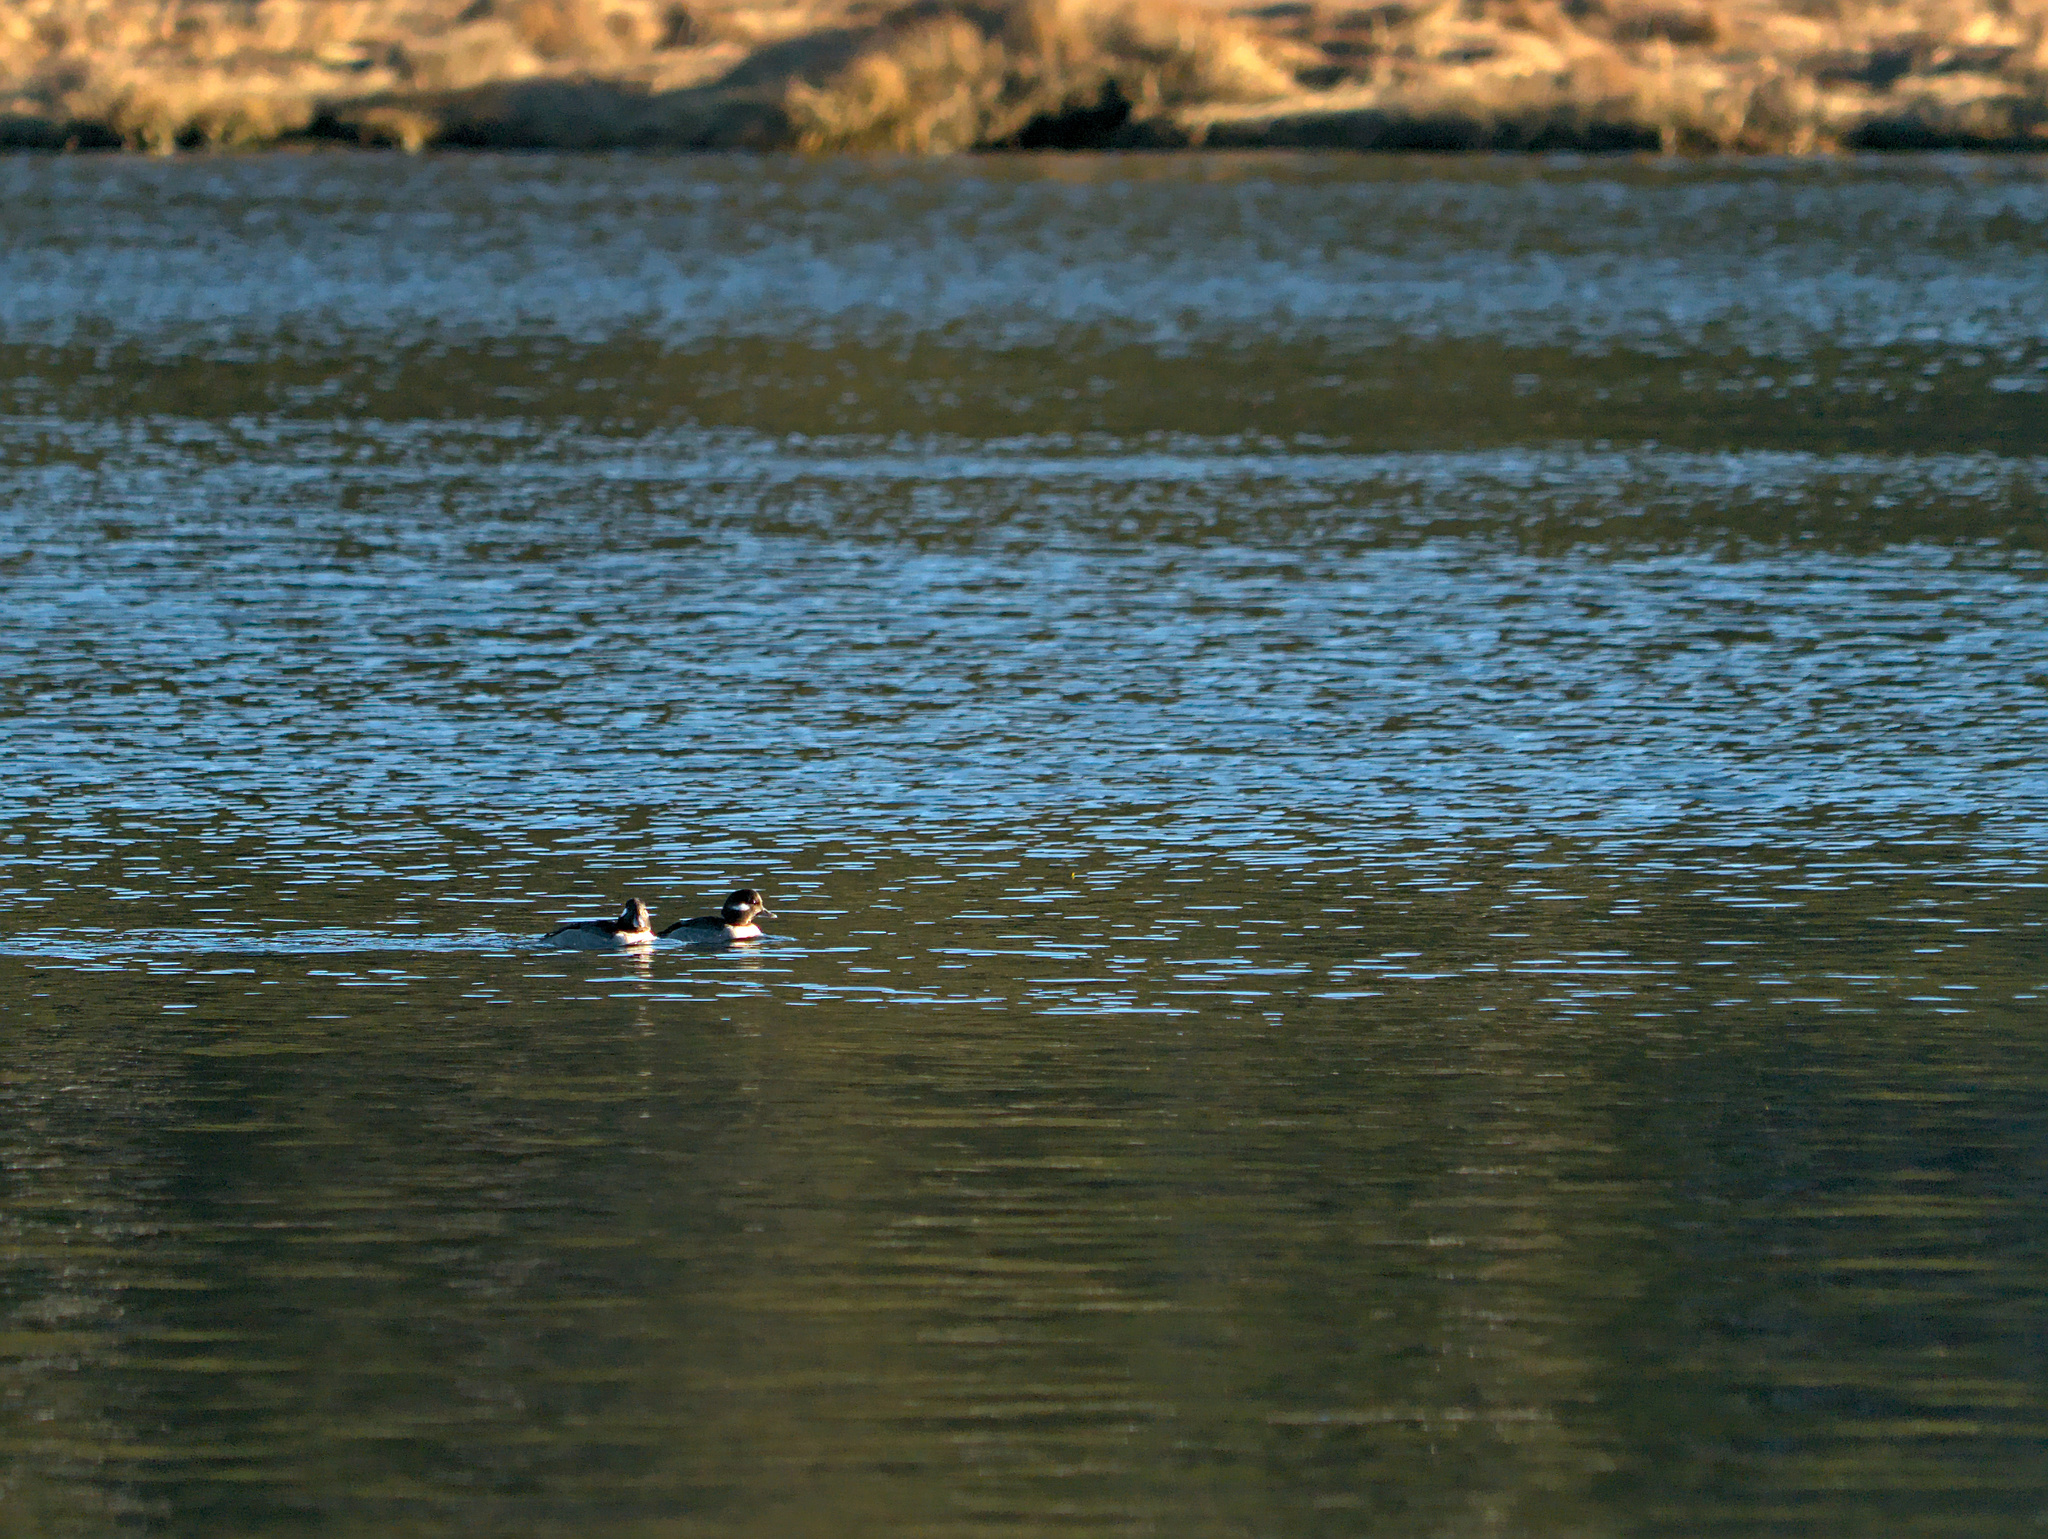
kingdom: Animalia
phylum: Chordata
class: Aves
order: Anseriformes
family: Anatidae
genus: Bucephala
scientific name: Bucephala albeola
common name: Bufflehead
